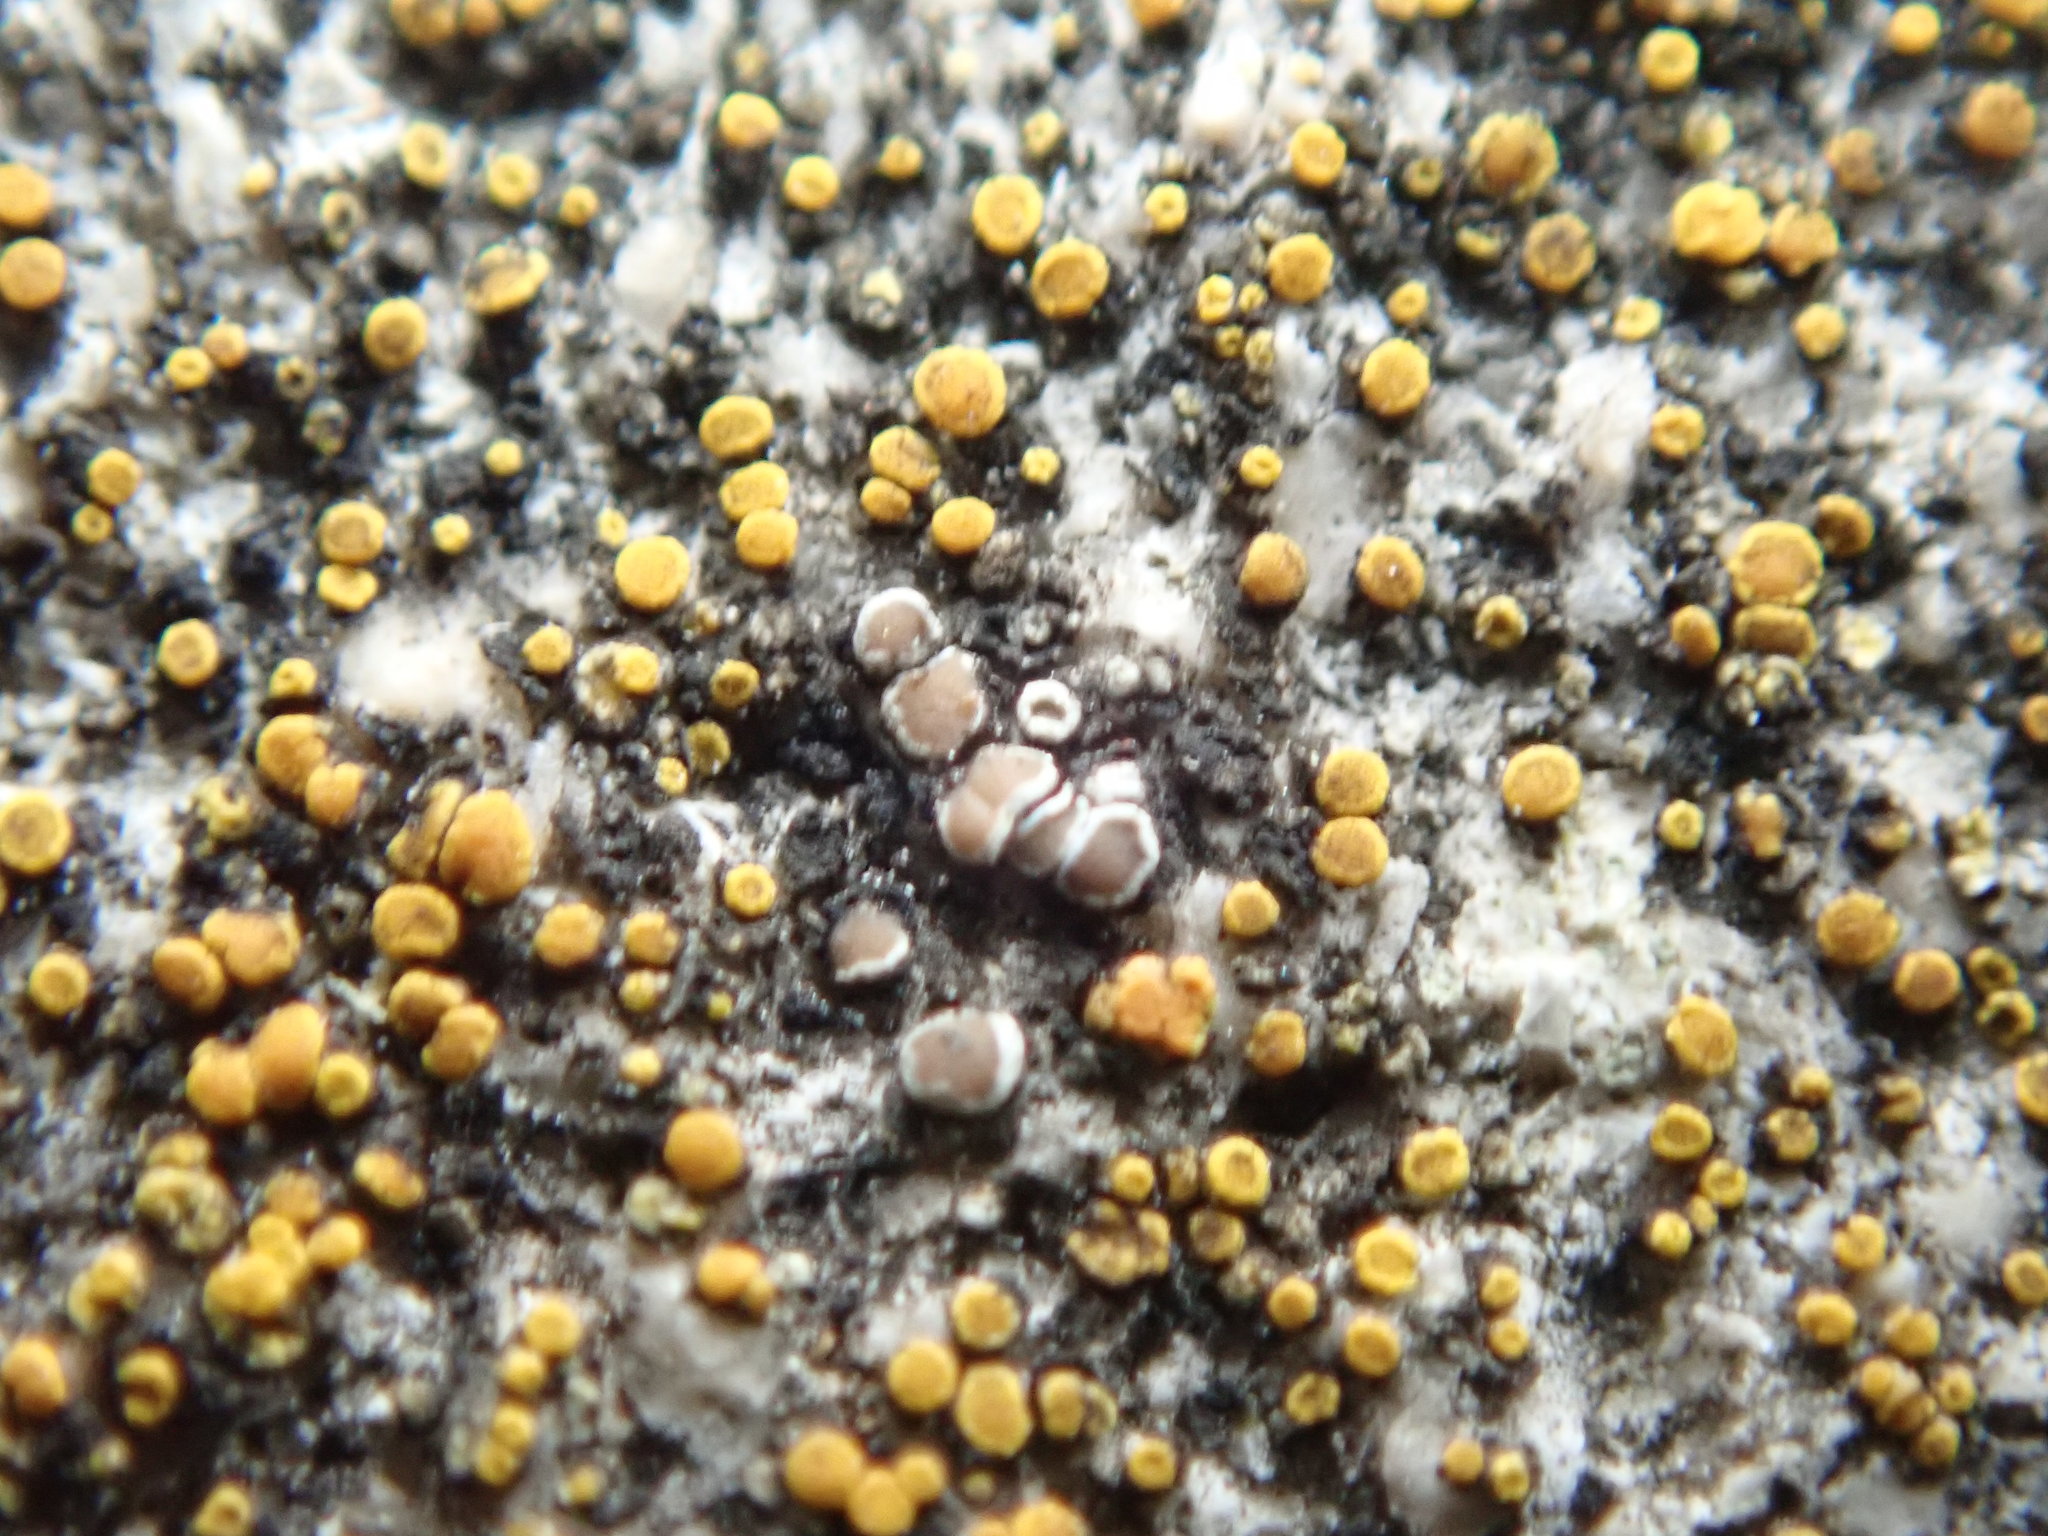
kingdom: Fungi
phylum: Ascomycota
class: Lecanoromycetes
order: Lecanorales
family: Lecanoraceae
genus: Polyozosia
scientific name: Polyozosia dispersa
